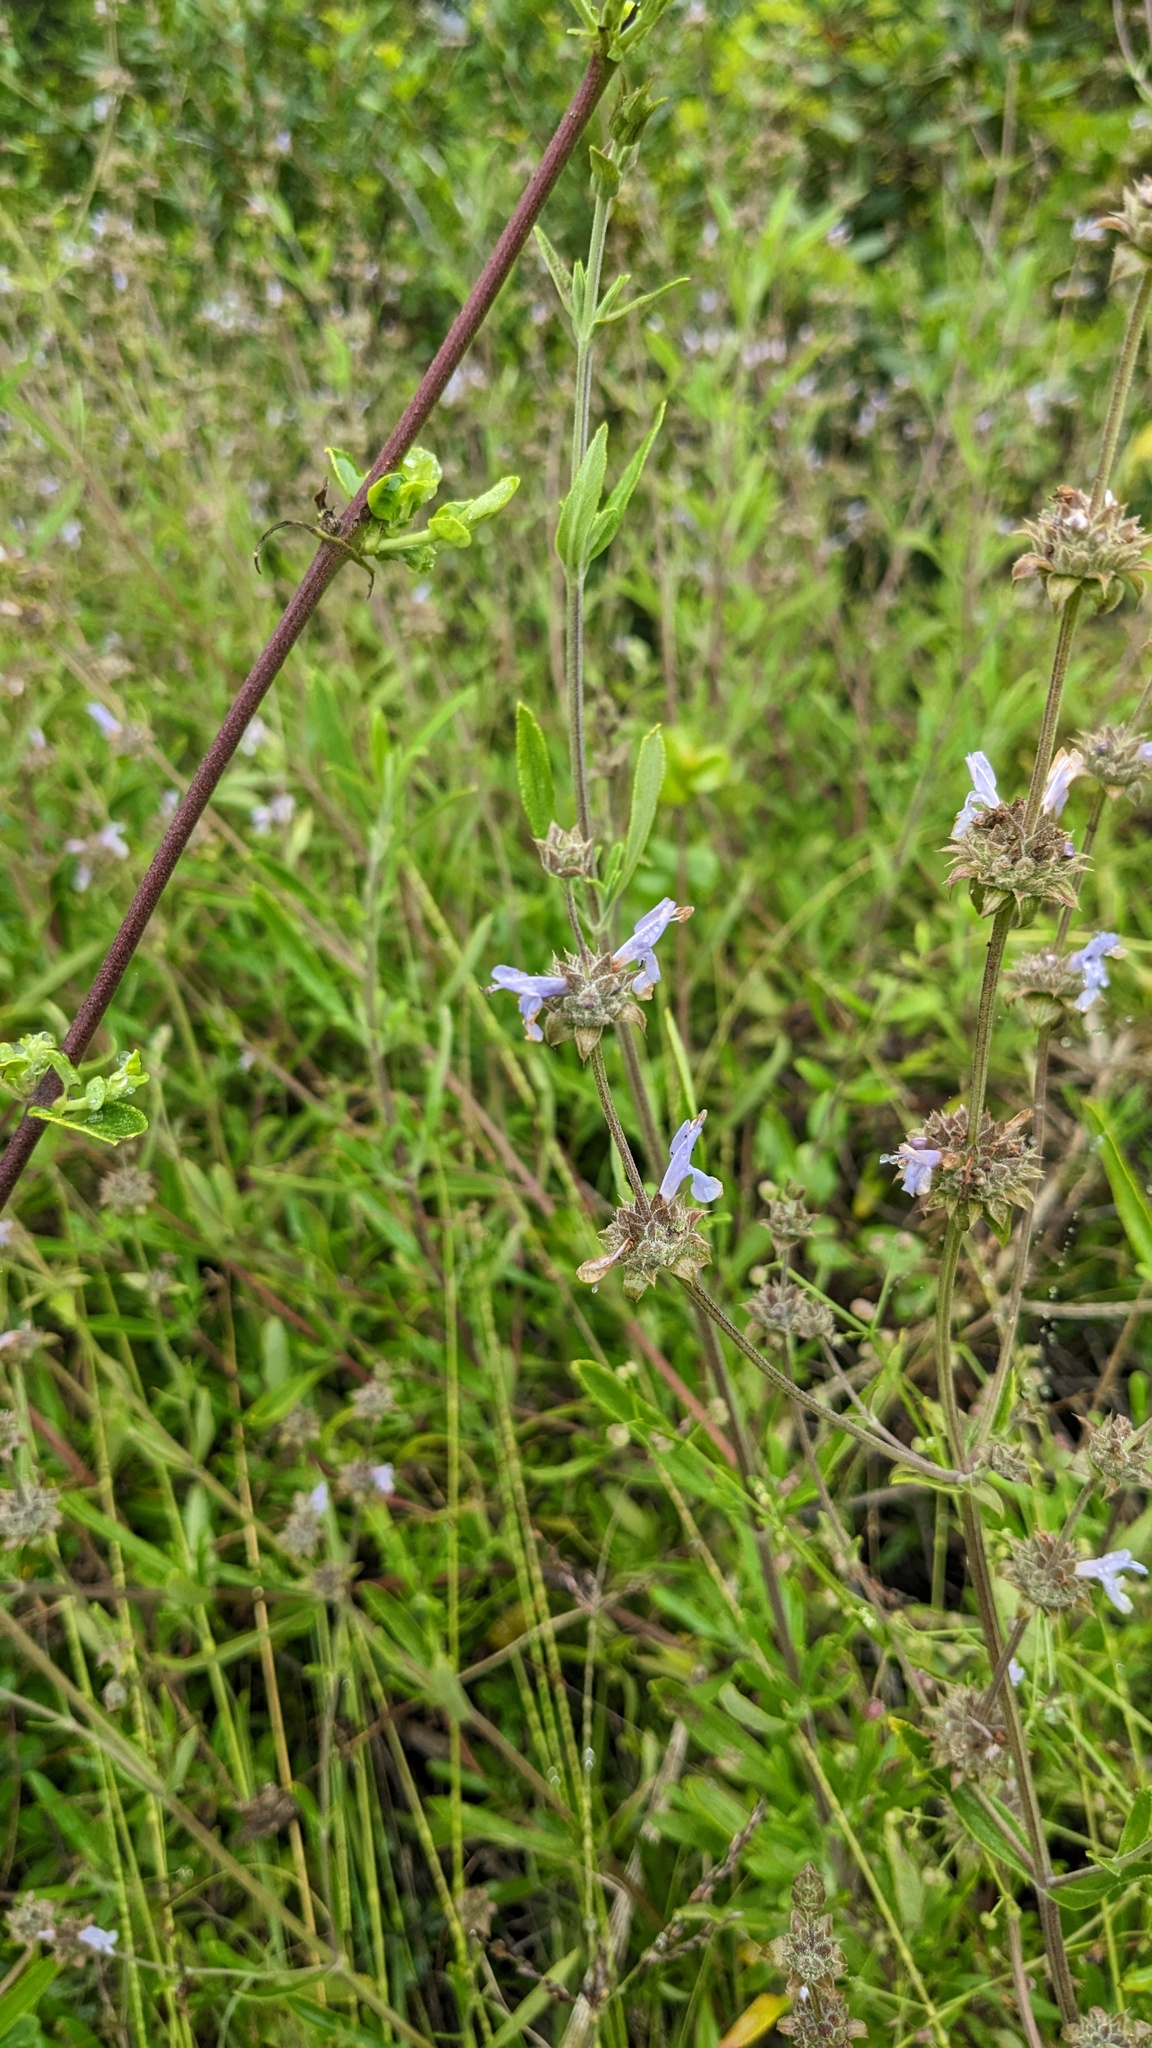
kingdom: Plantae
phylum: Tracheophyta
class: Magnoliopsida
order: Lamiales
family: Lamiaceae
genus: Salvia
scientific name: Salvia mellifera
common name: Black sage
